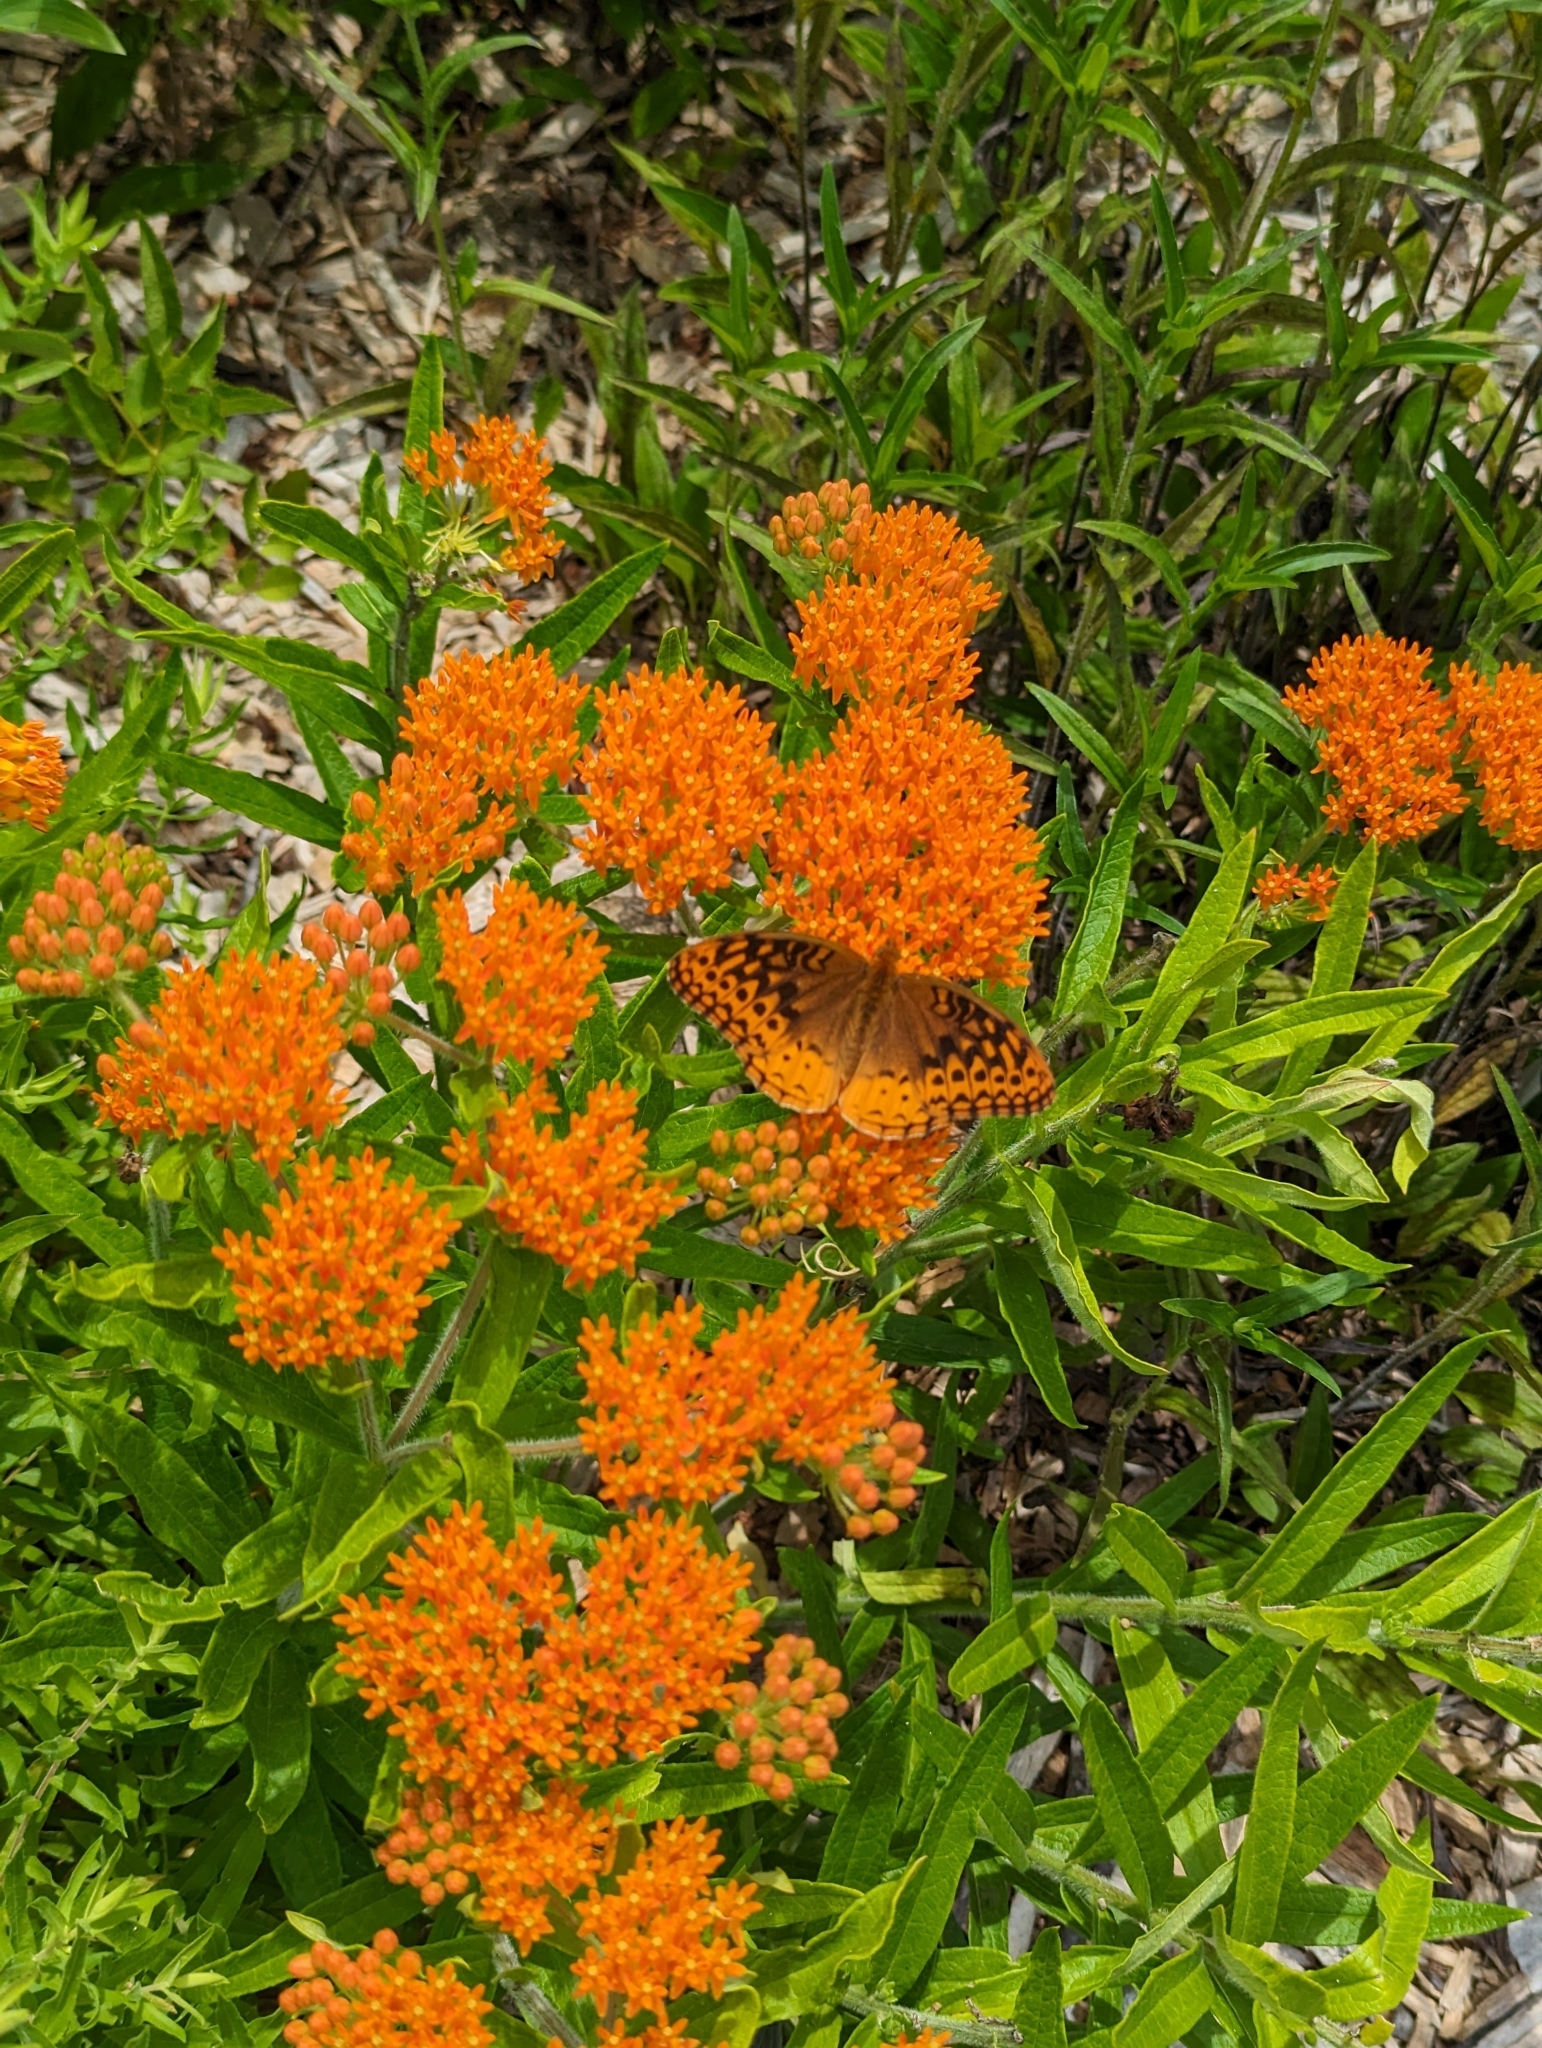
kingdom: Animalia
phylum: Arthropoda
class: Insecta
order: Lepidoptera
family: Nymphalidae
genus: Speyeria
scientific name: Speyeria cybele
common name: Great spangled fritillary
